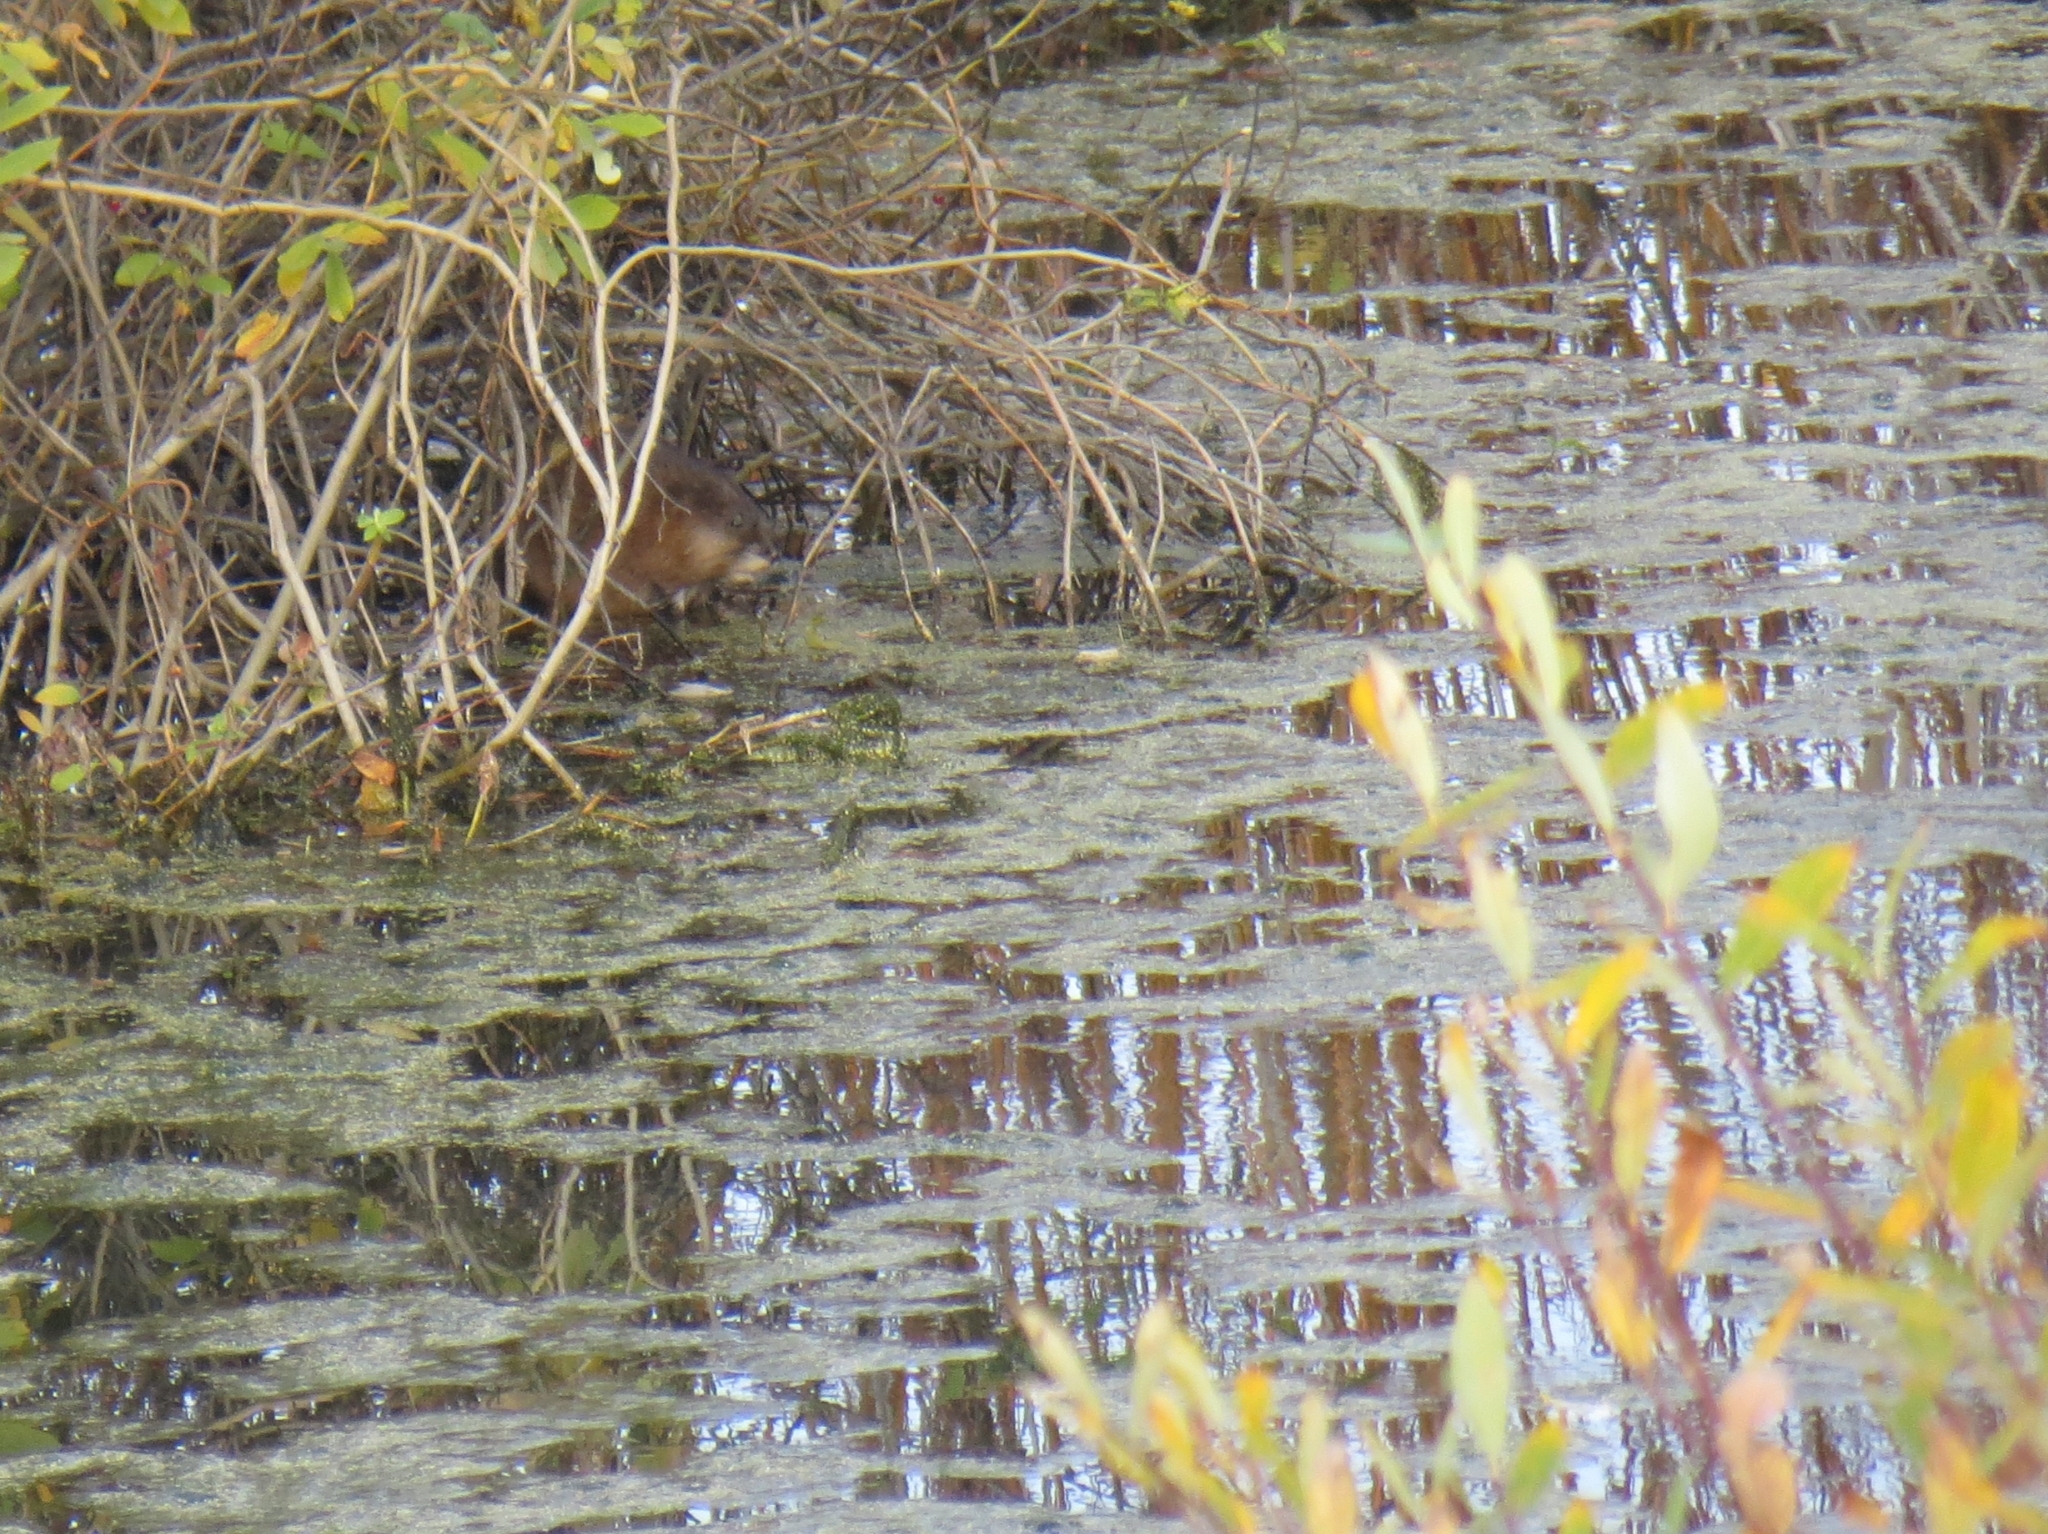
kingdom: Animalia
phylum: Chordata
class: Mammalia
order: Rodentia
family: Cricetidae
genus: Ondatra
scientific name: Ondatra zibethicus
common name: Muskrat
